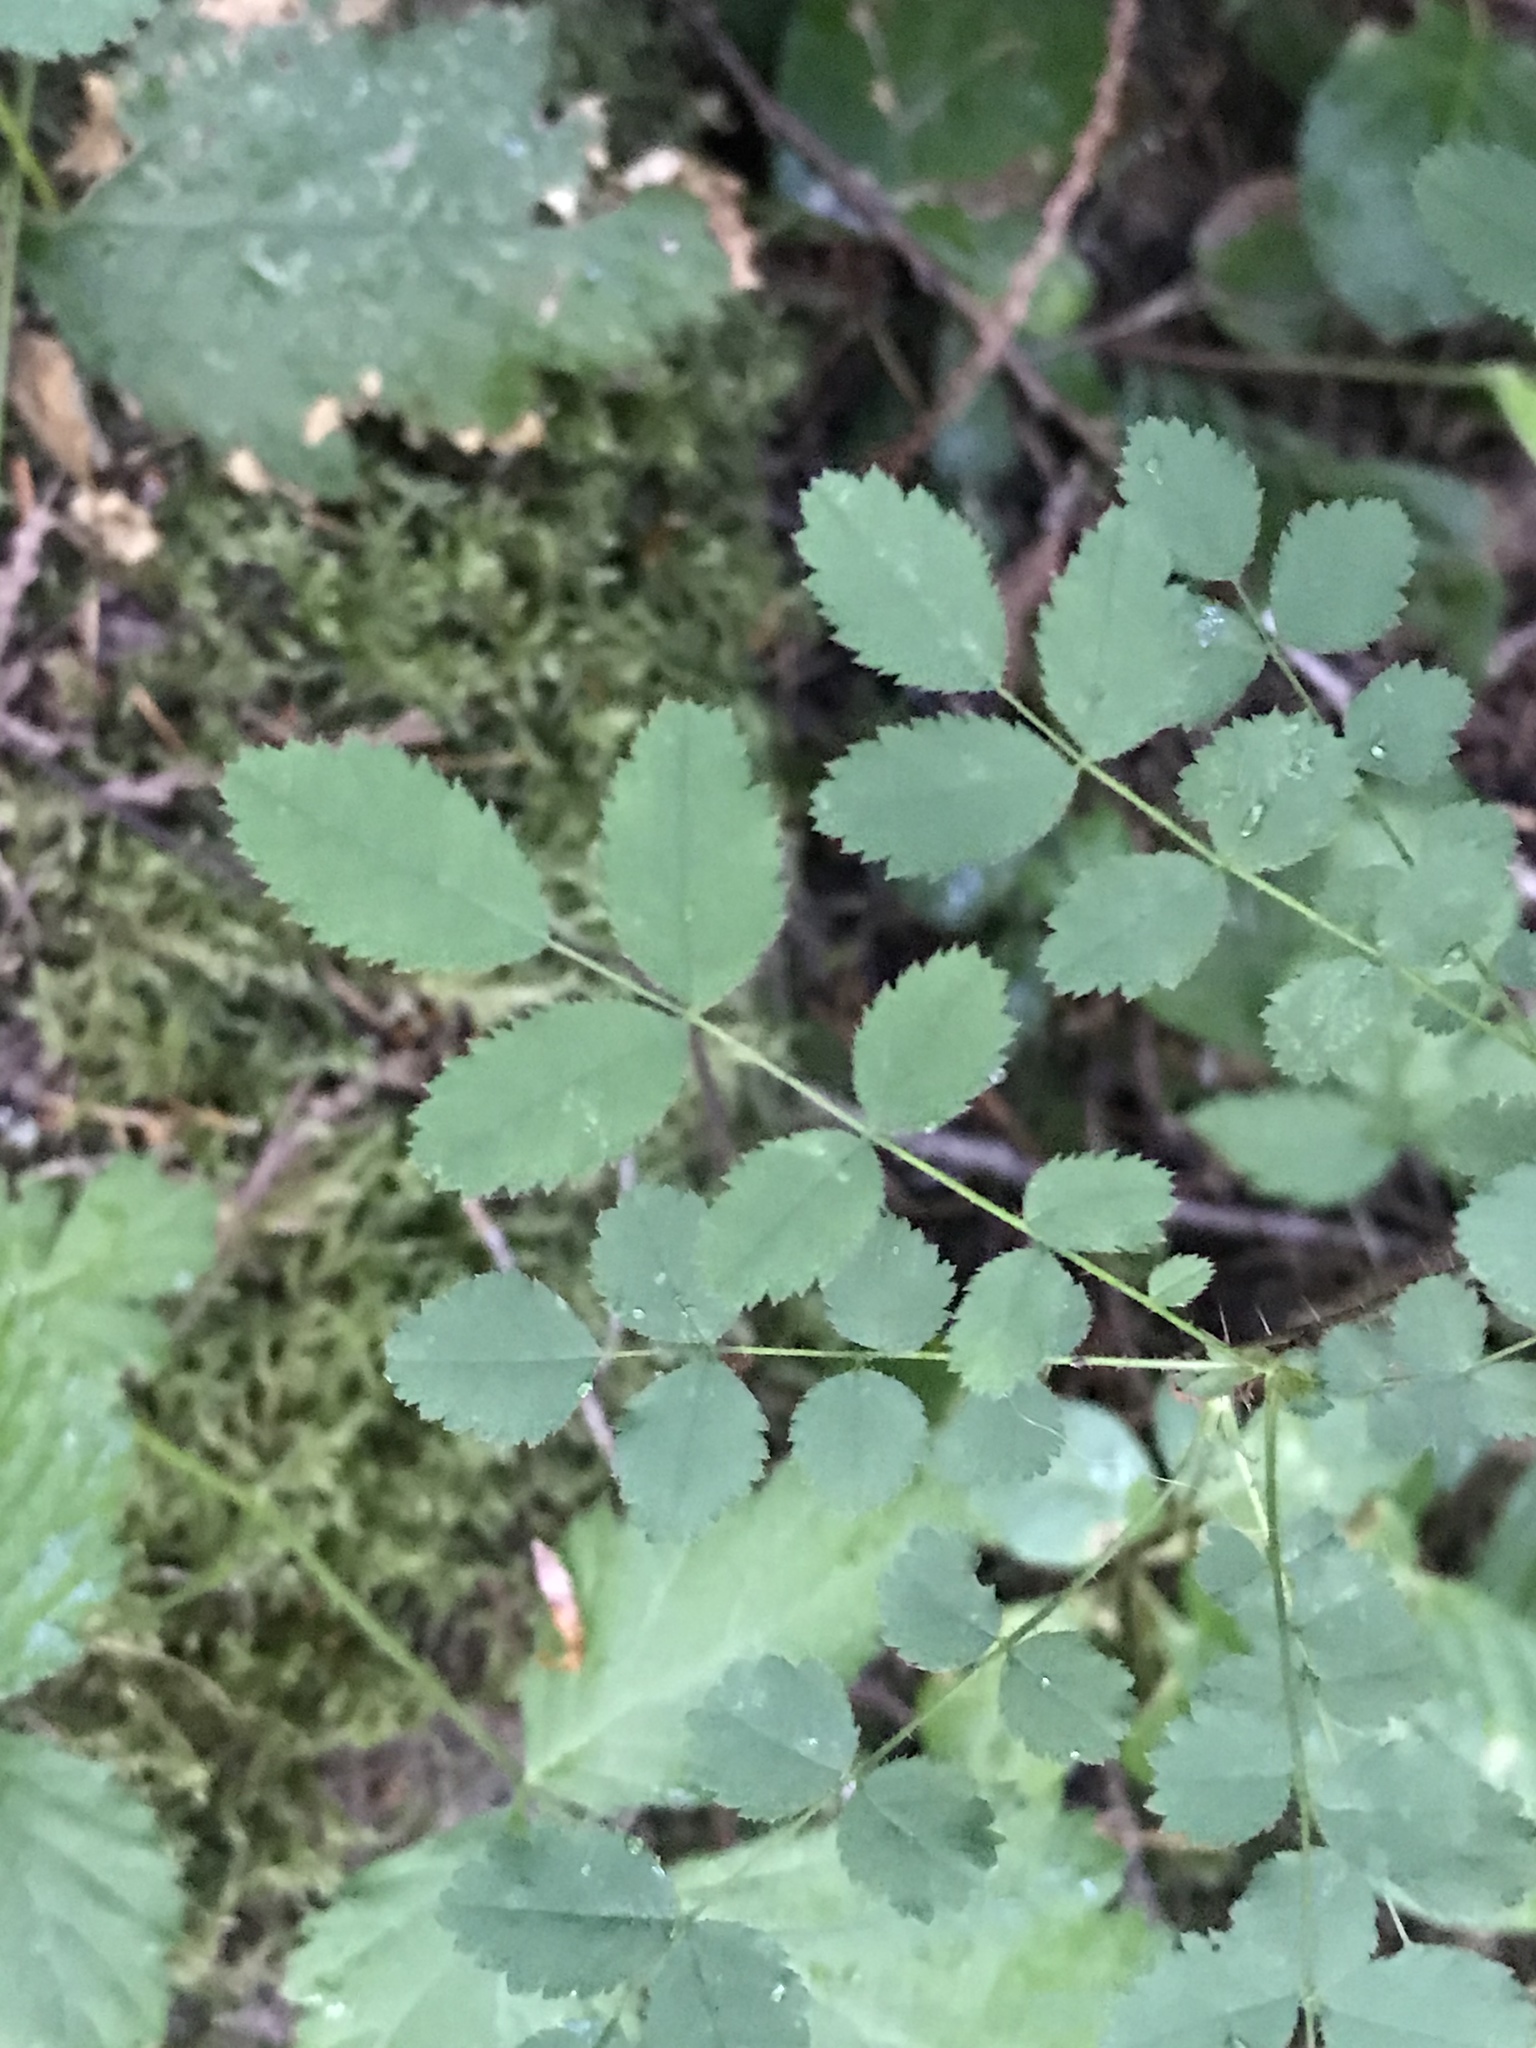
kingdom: Plantae
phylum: Tracheophyta
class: Magnoliopsida
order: Rosales
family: Rosaceae
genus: Rosa
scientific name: Rosa gymnocarpa
